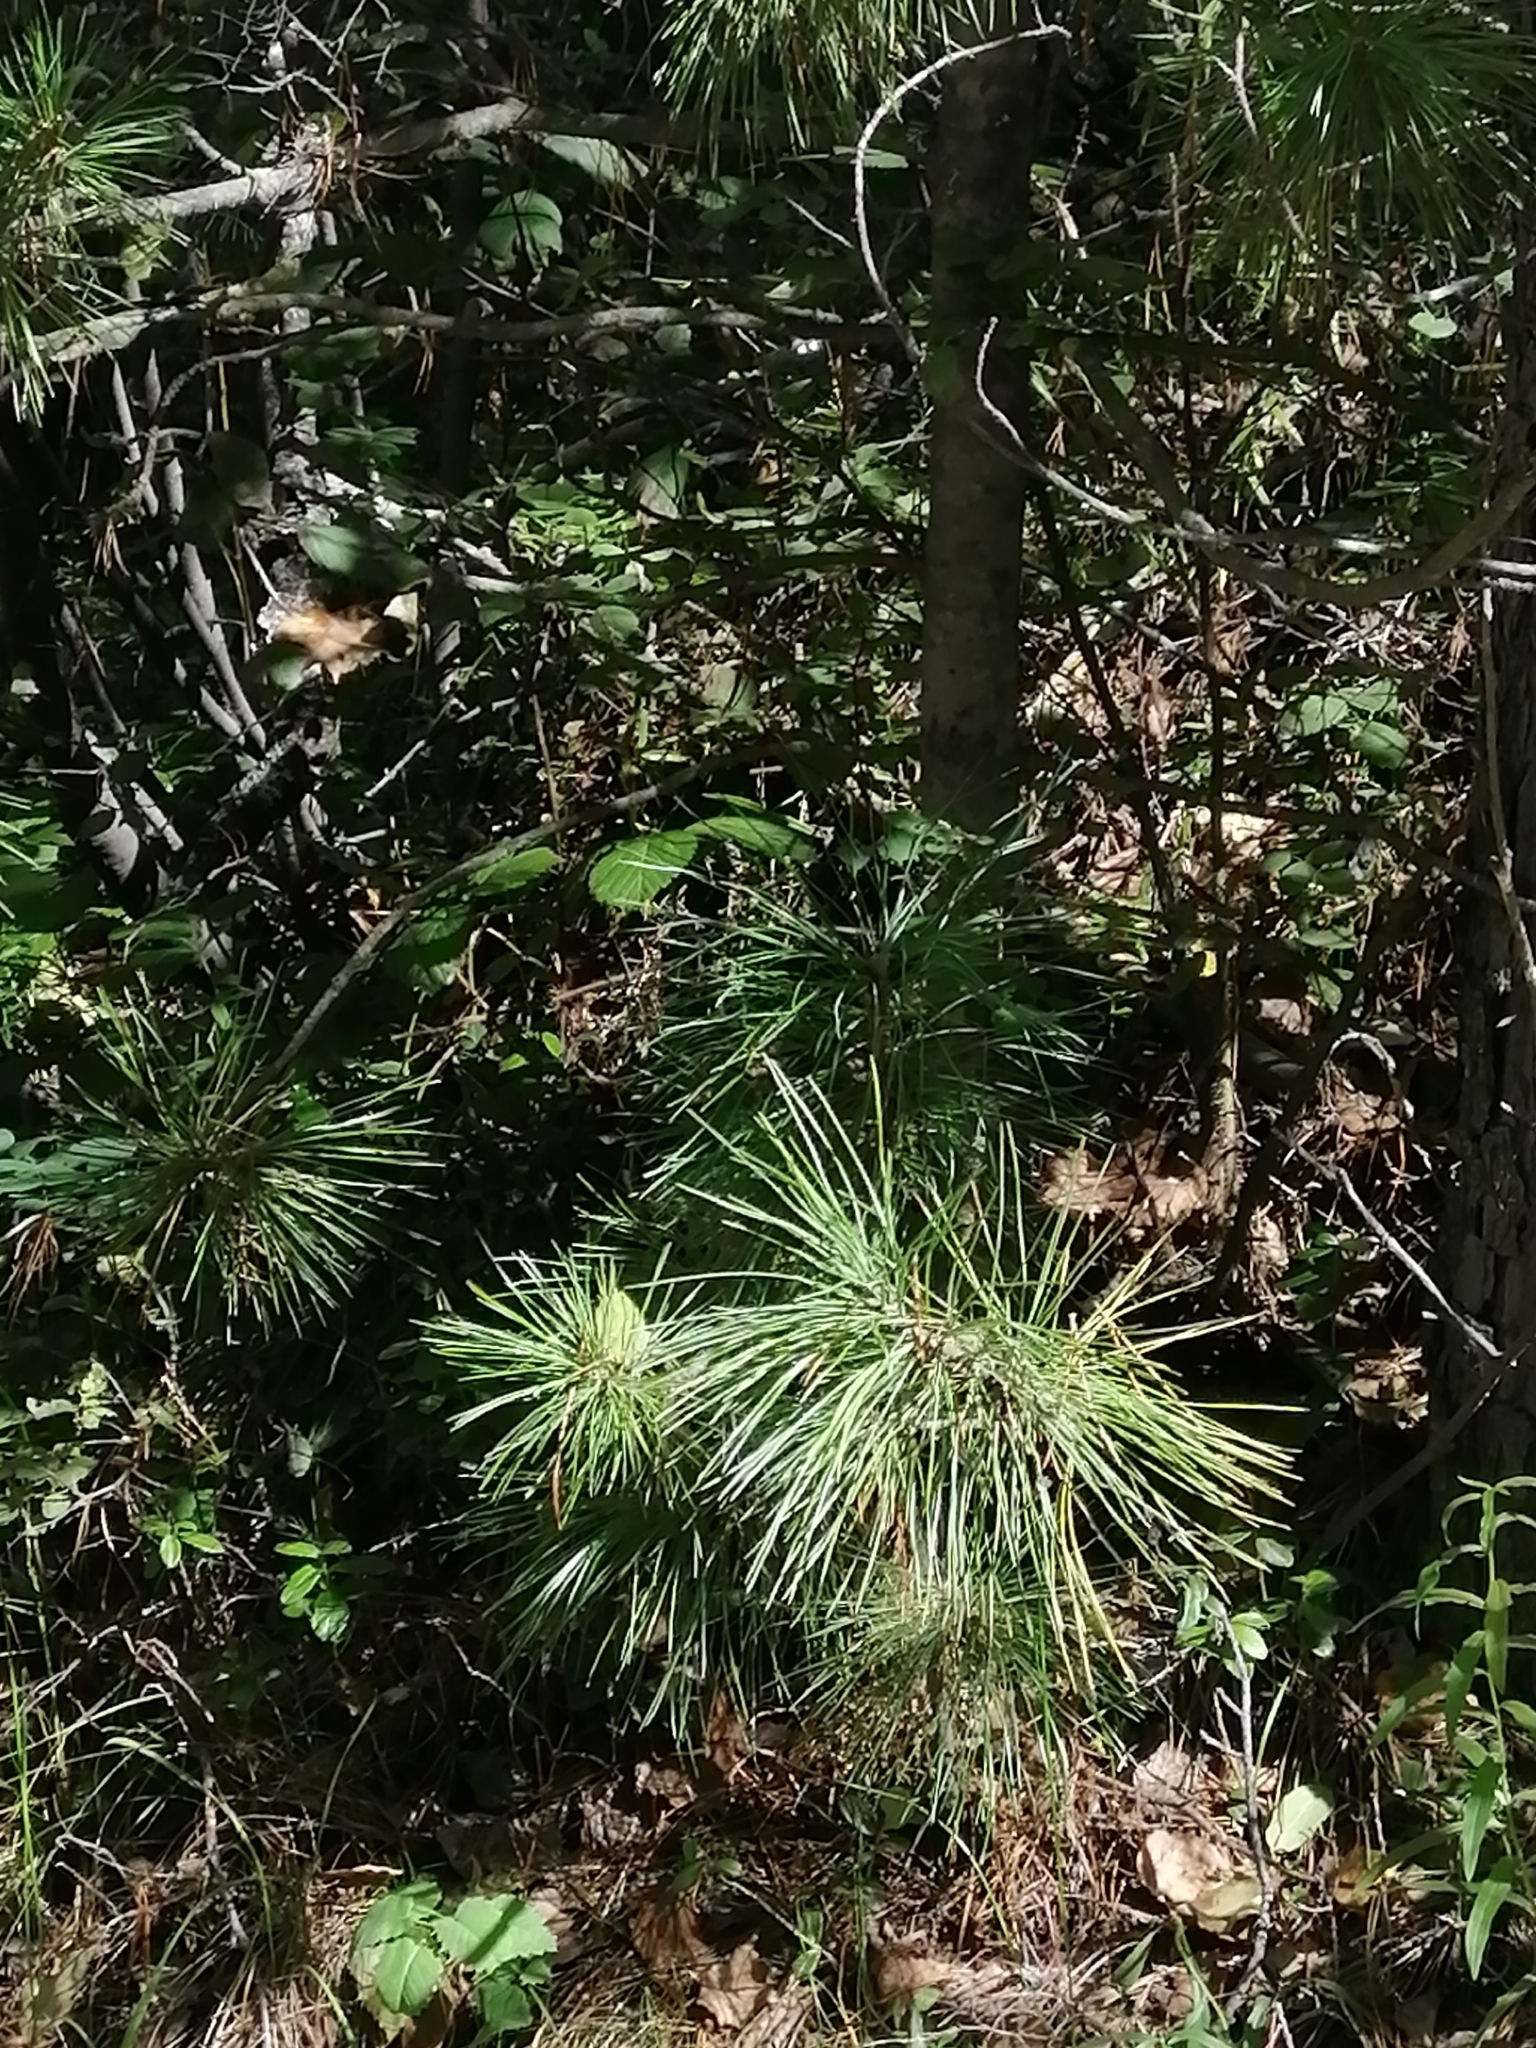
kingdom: Plantae
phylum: Tracheophyta
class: Pinopsida
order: Pinales
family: Pinaceae
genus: Pinus
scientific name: Pinus sibirica
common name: Siberian pine
